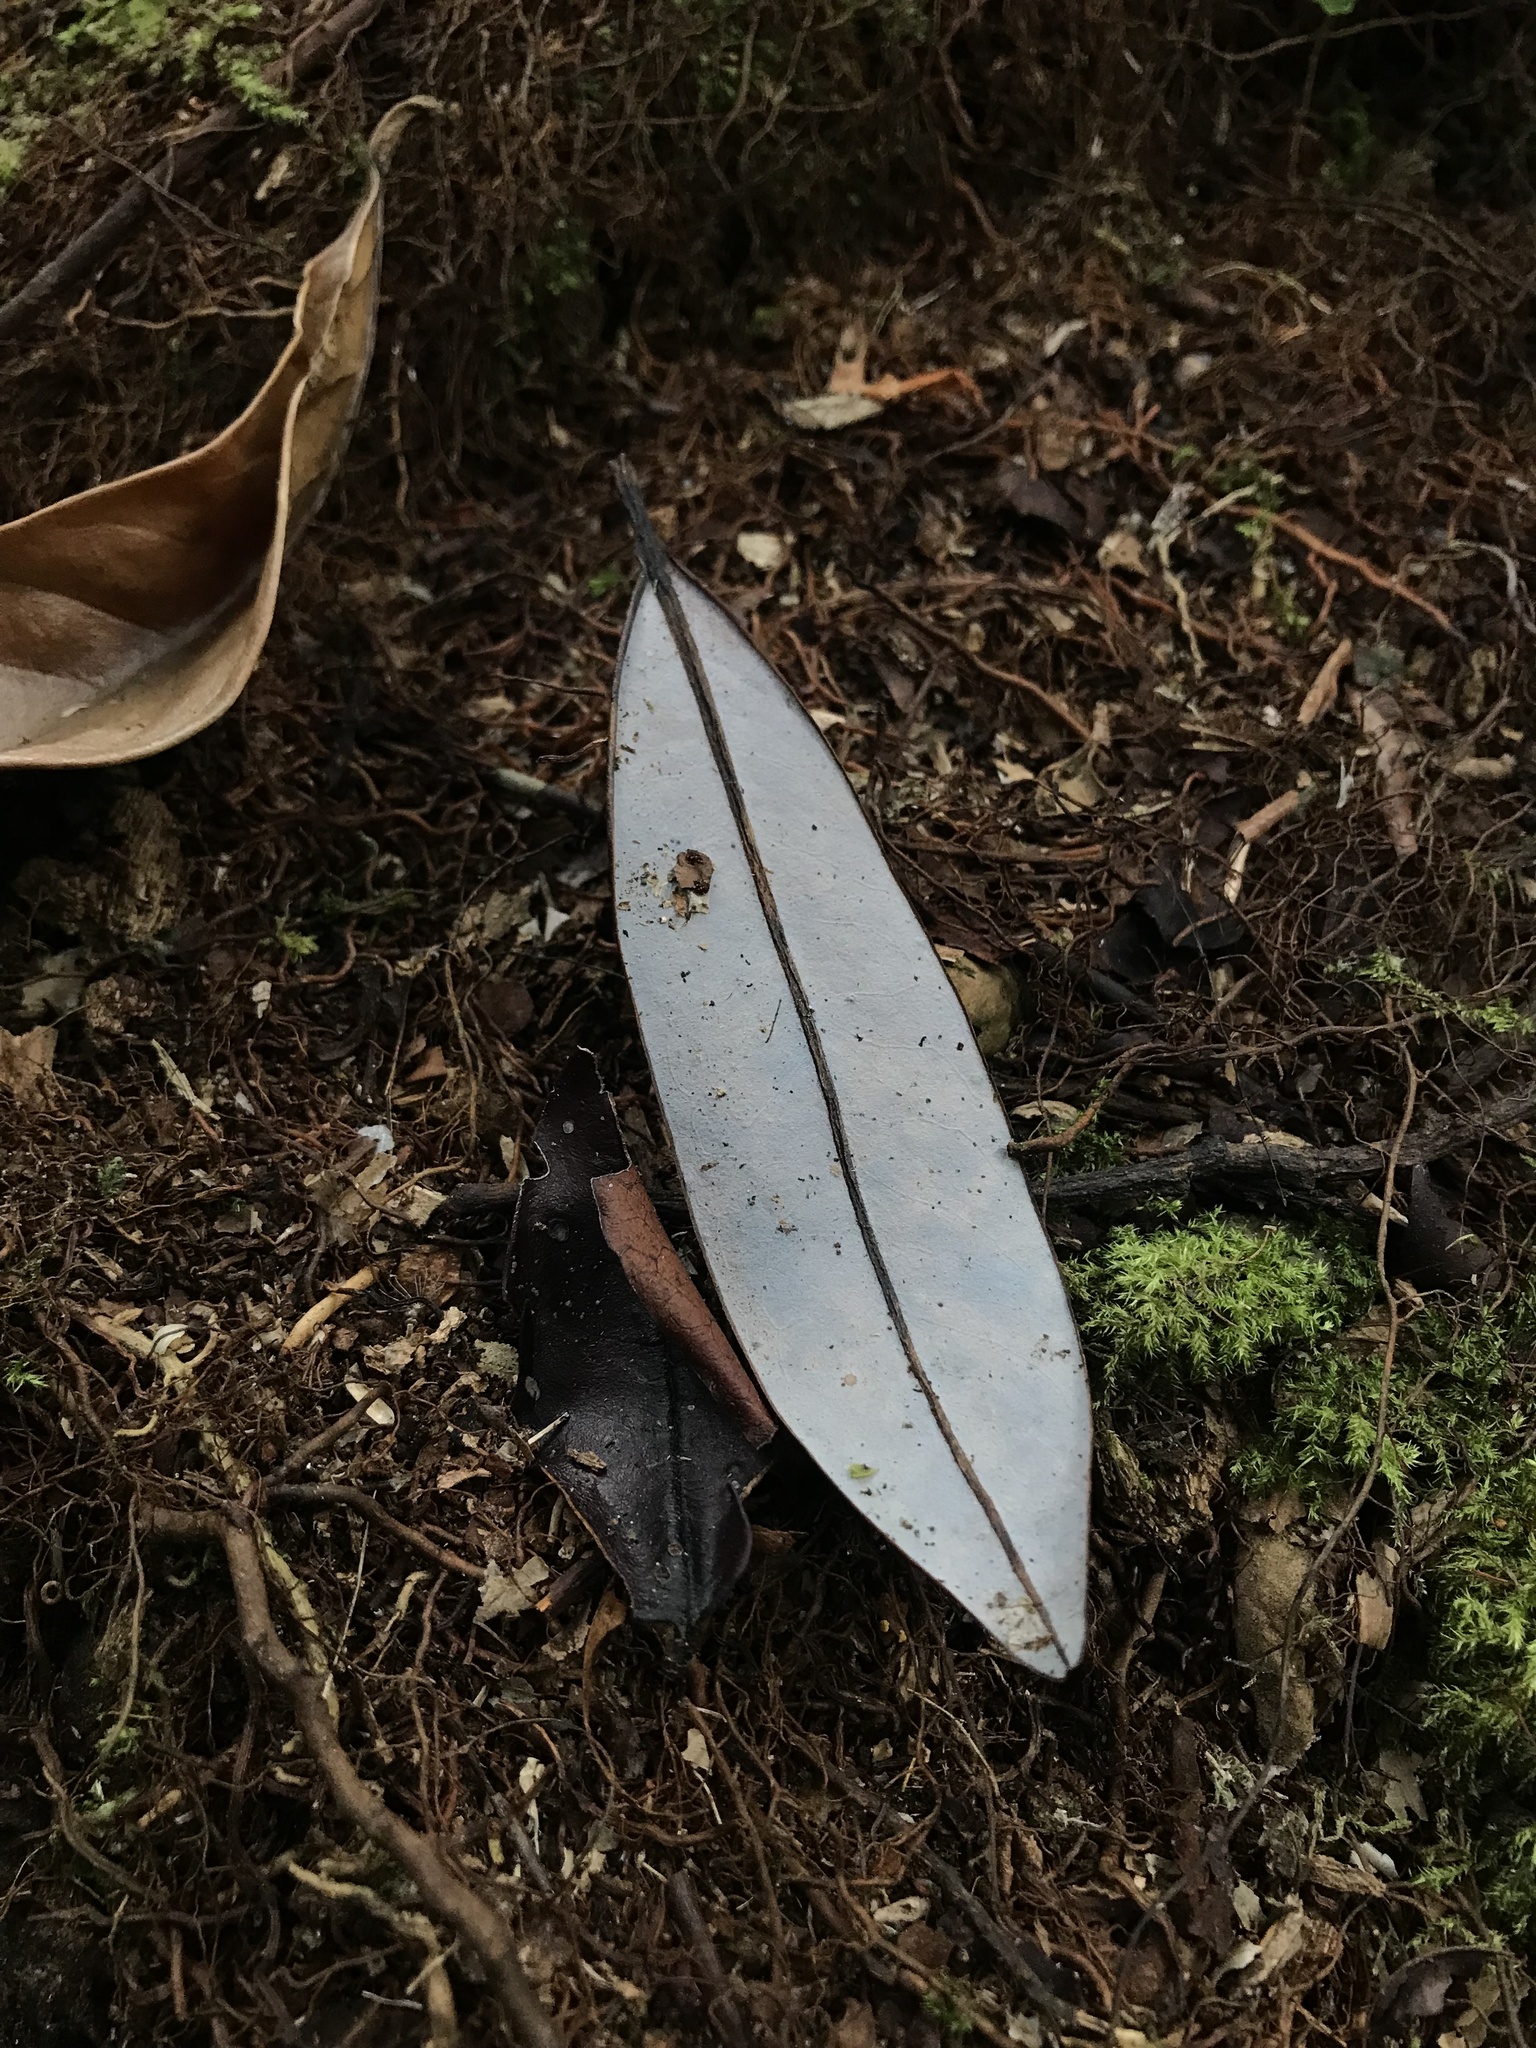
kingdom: Plantae
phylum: Tracheophyta
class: Magnoliopsida
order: Canellales
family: Winteraceae
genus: Drimys
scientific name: Drimys granadensis
